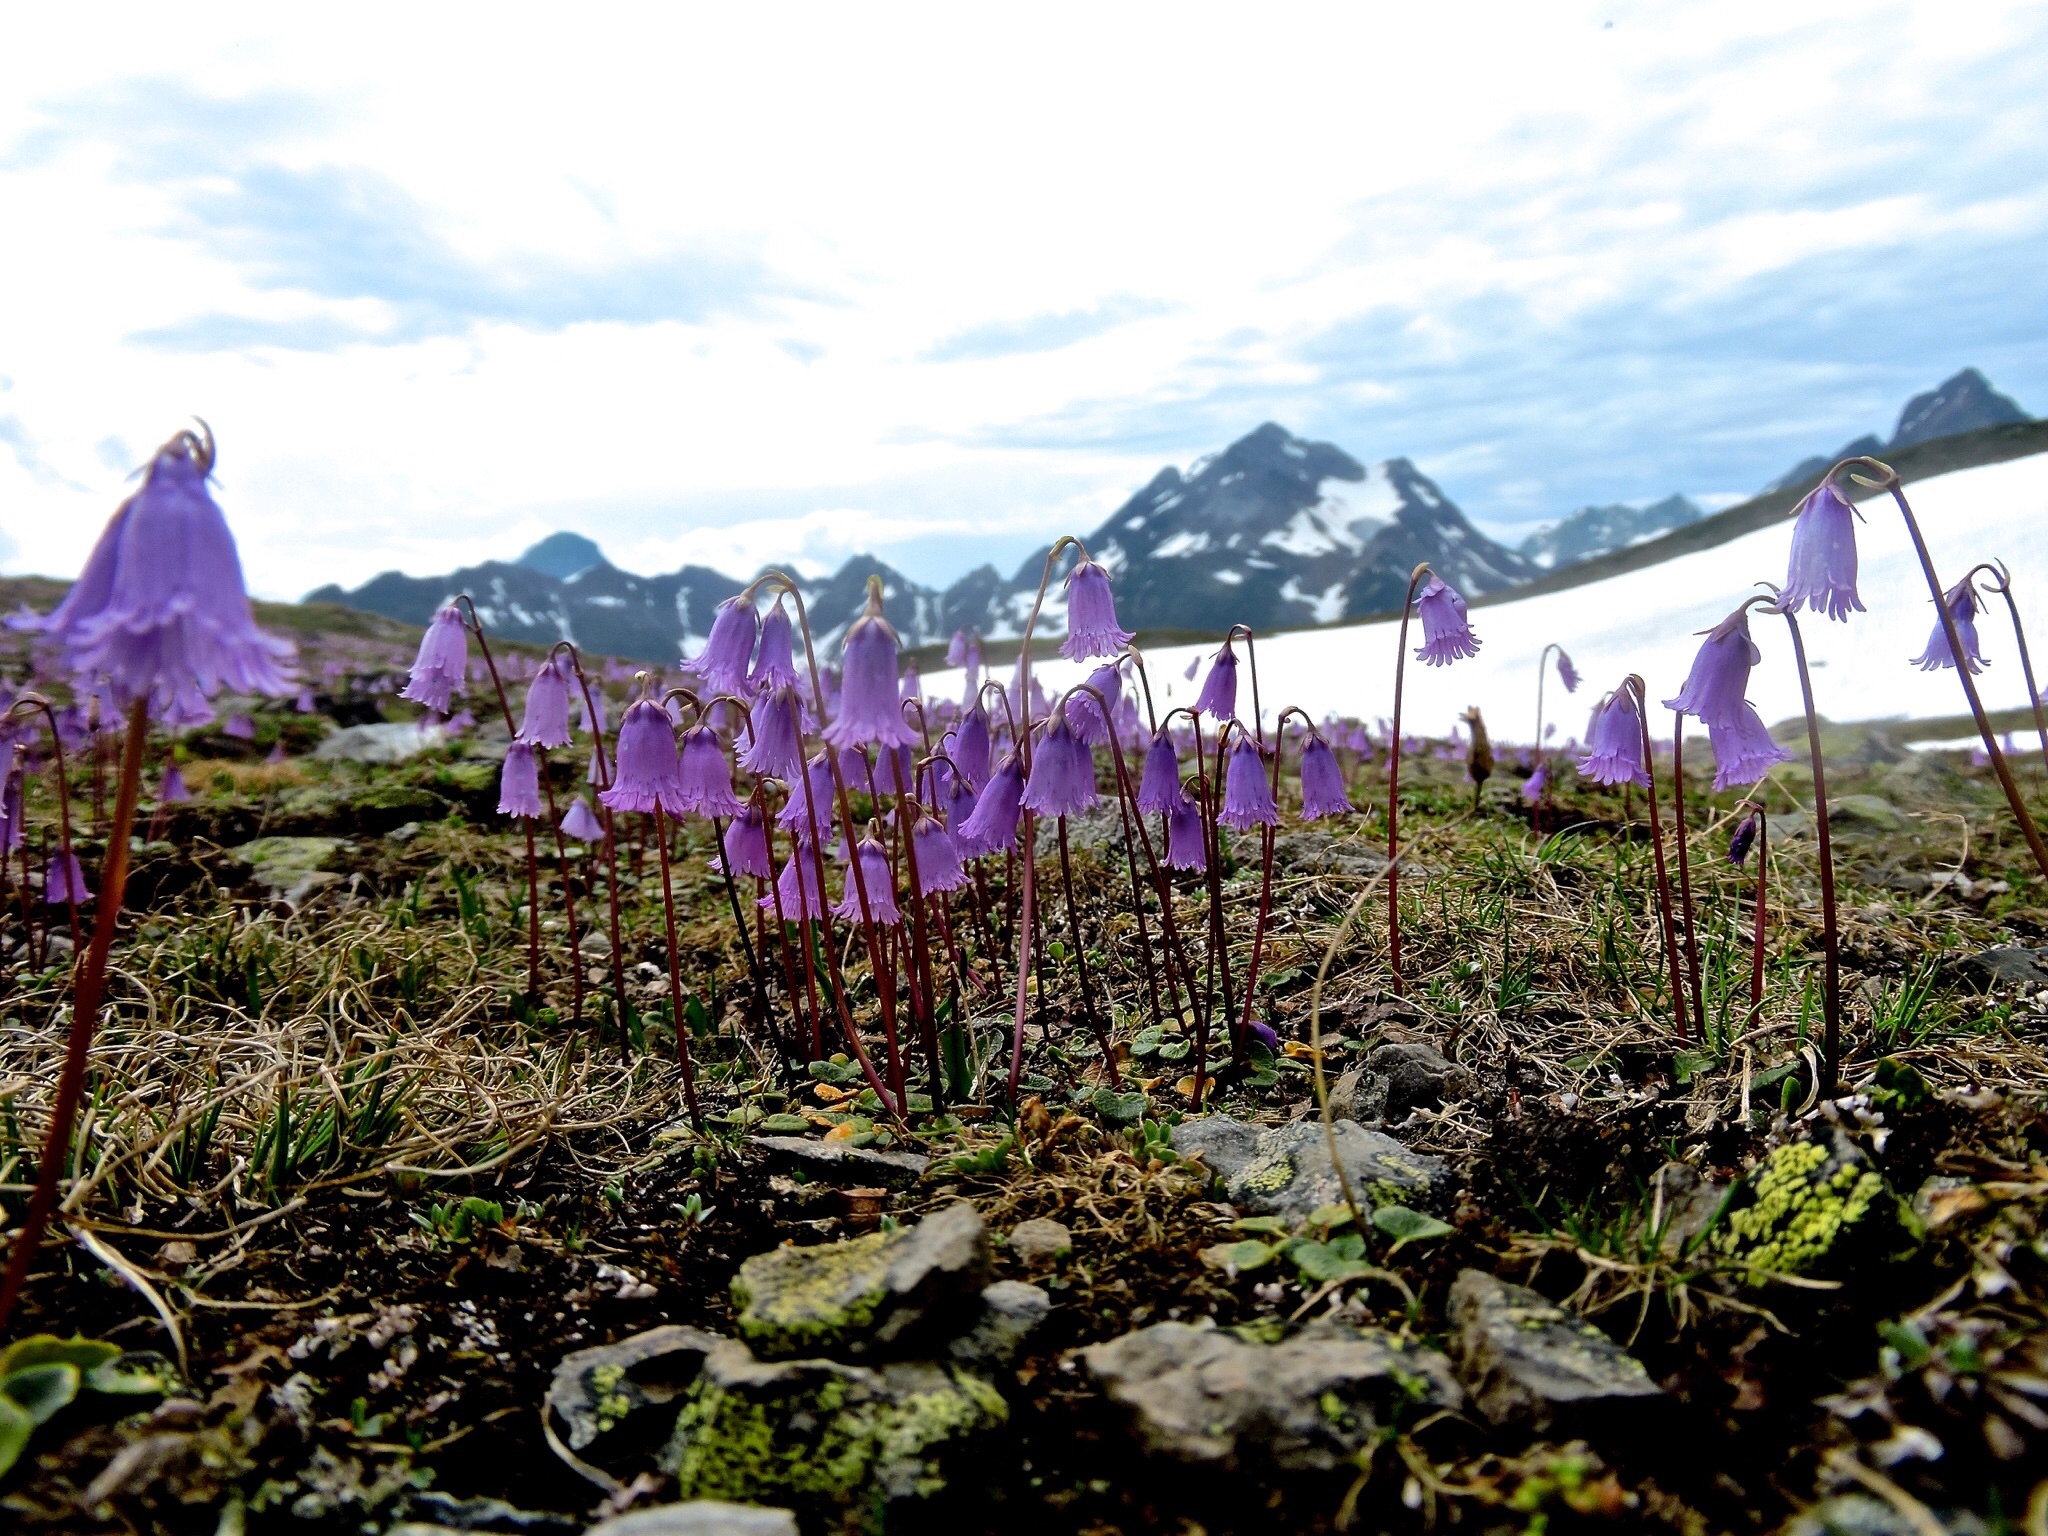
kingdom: Plantae
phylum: Tracheophyta
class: Magnoliopsida
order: Ericales
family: Primulaceae
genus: Soldanella
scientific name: Soldanella pusilla
